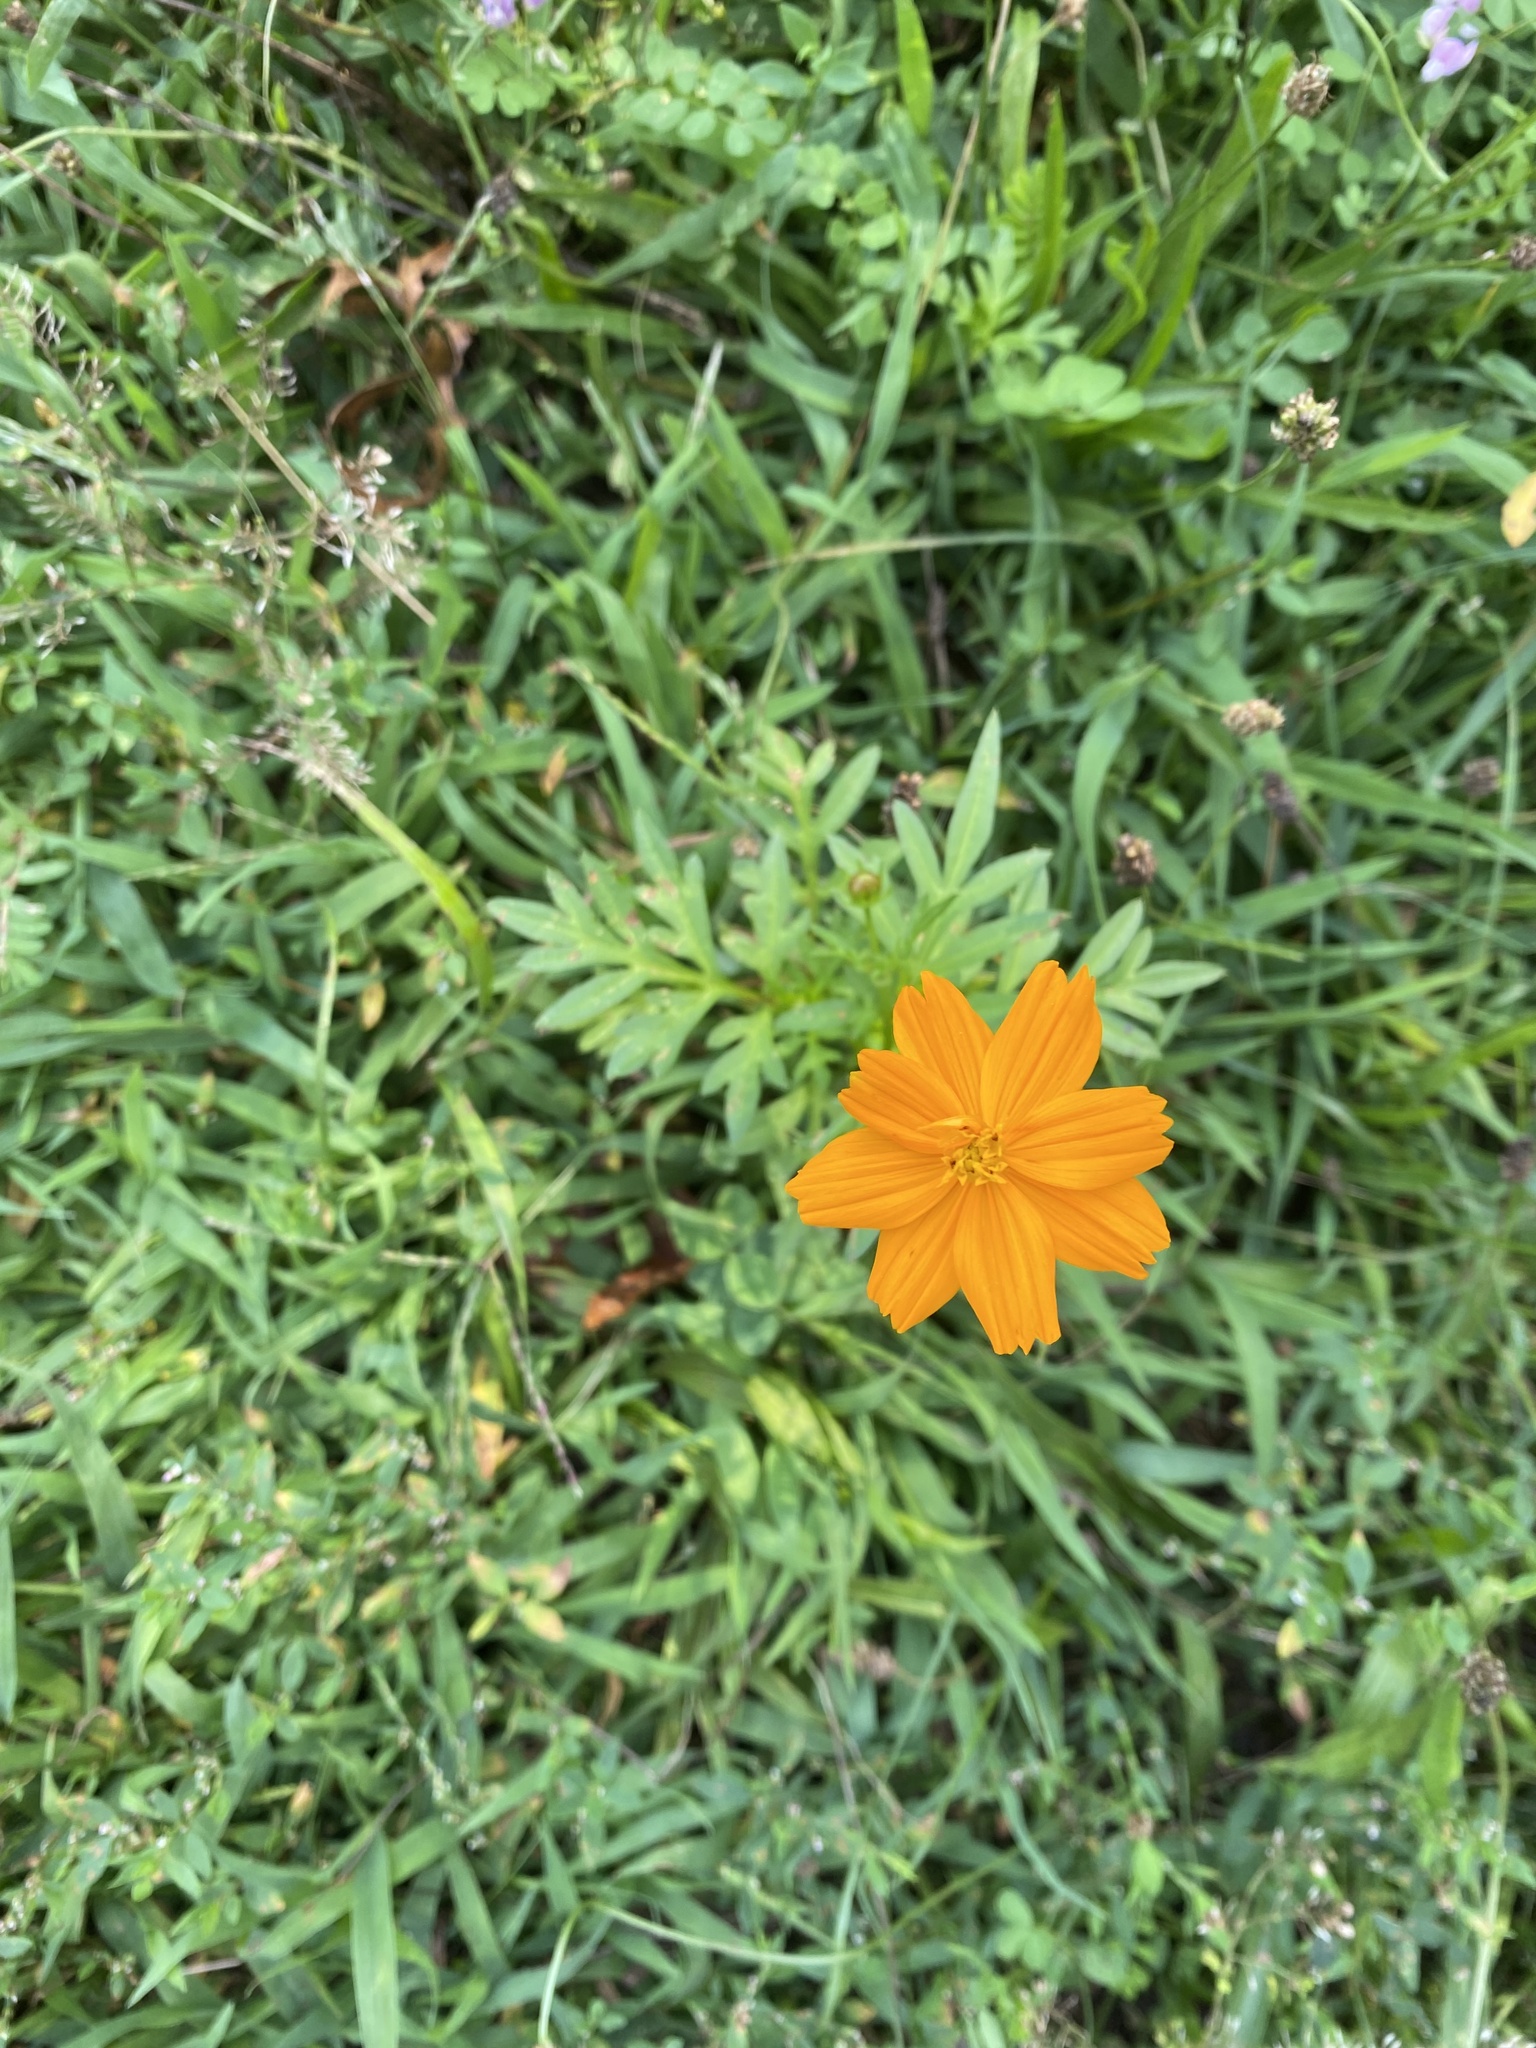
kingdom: Plantae
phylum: Tracheophyta
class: Magnoliopsida
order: Asterales
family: Asteraceae
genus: Cosmos
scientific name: Cosmos sulphureus
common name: Sulphur cosmos
